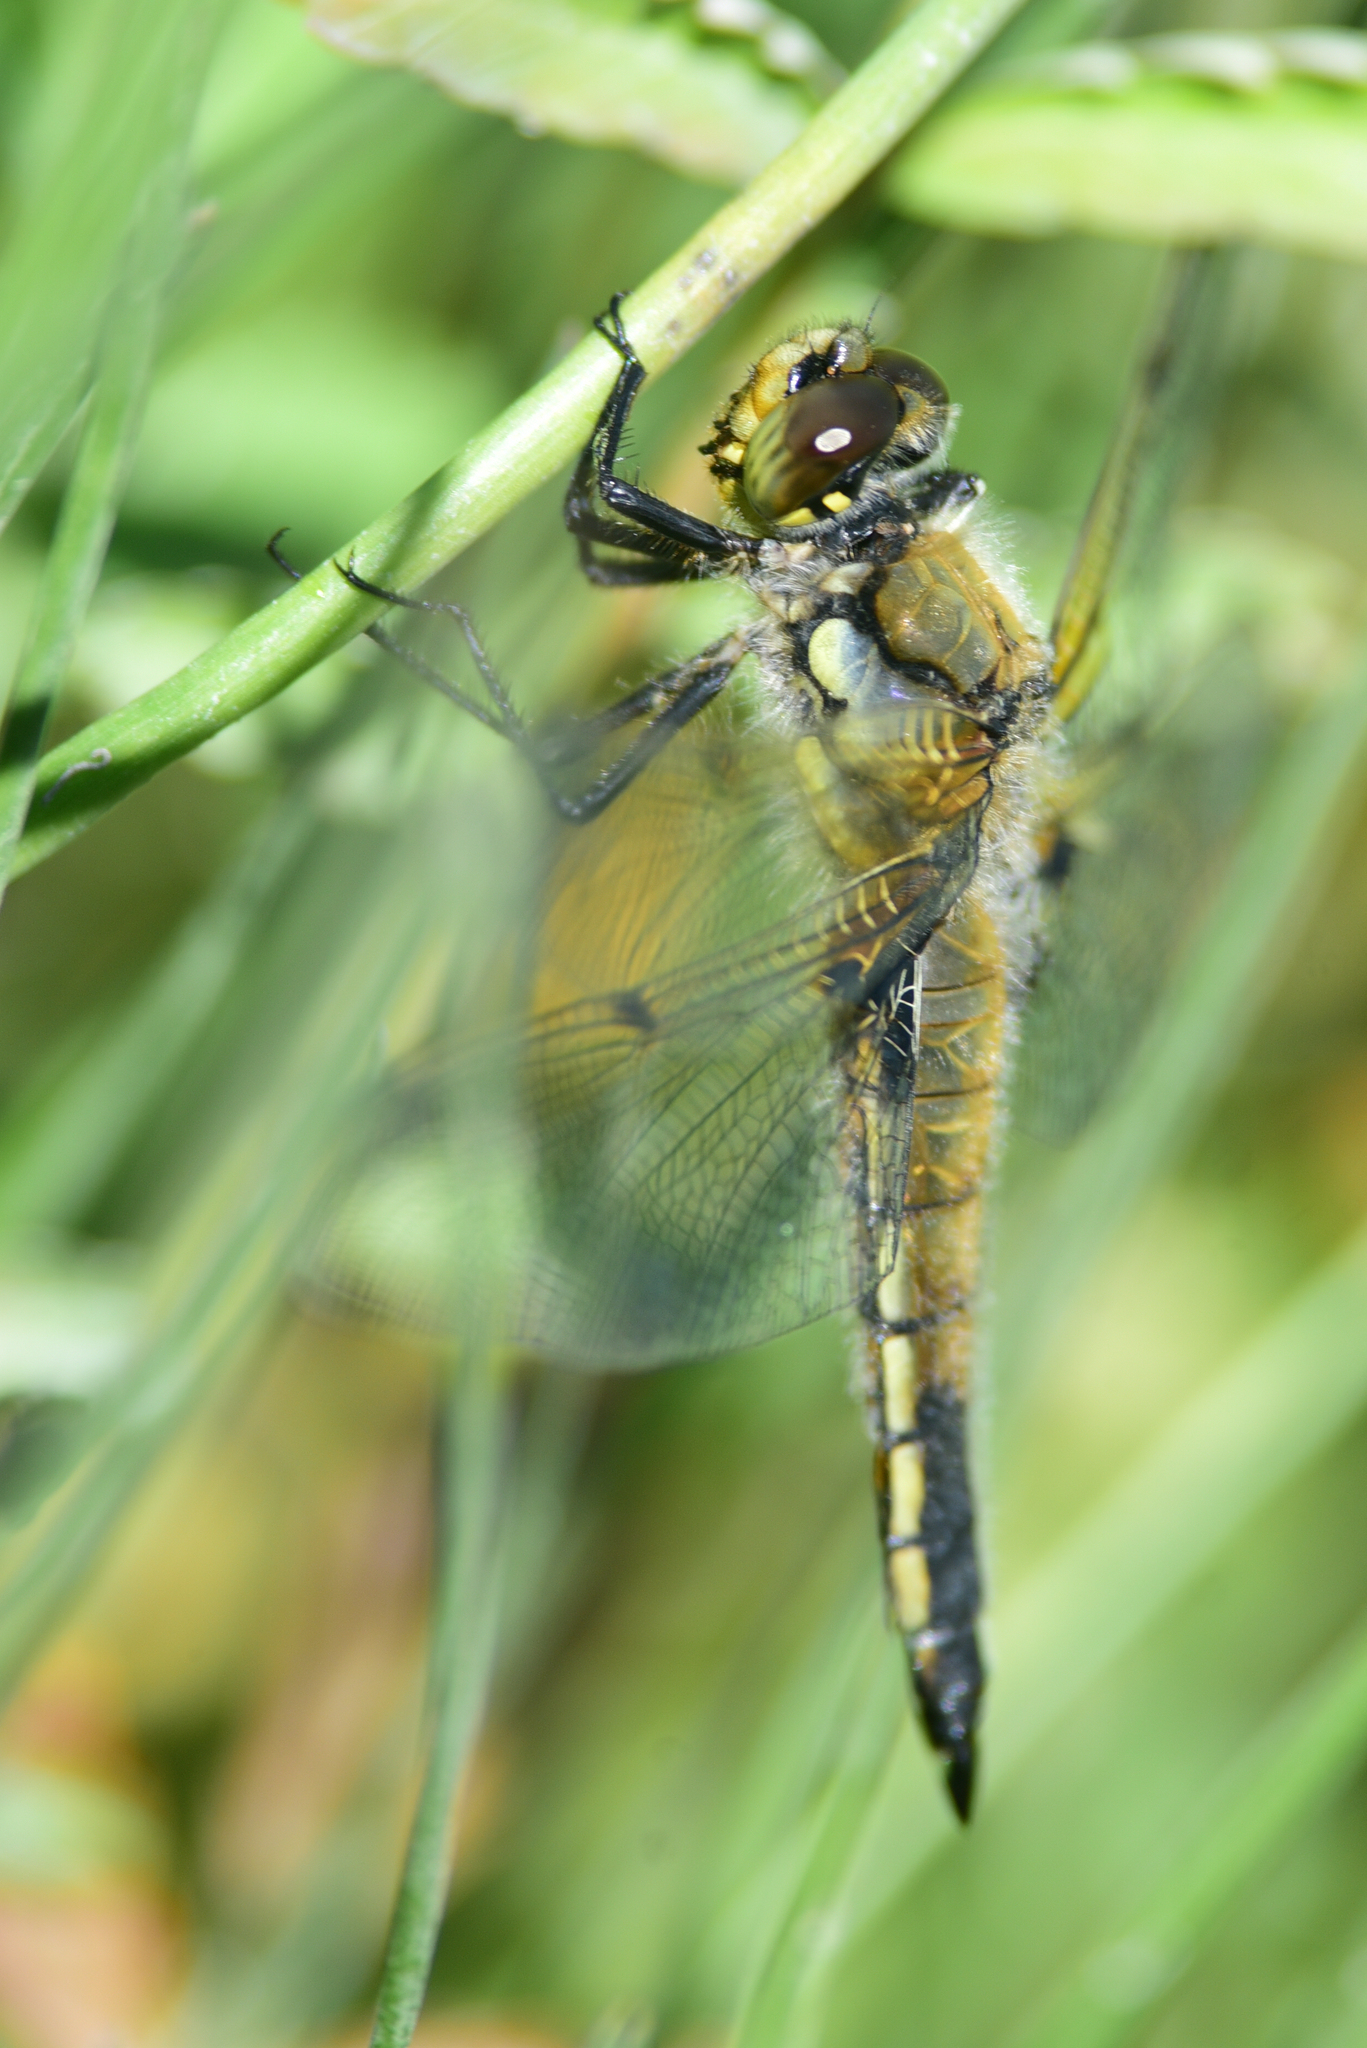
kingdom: Animalia
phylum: Arthropoda
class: Insecta
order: Odonata
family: Libellulidae
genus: Libellula
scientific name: Libellula quadrimaculata
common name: Four-spotted chaser
